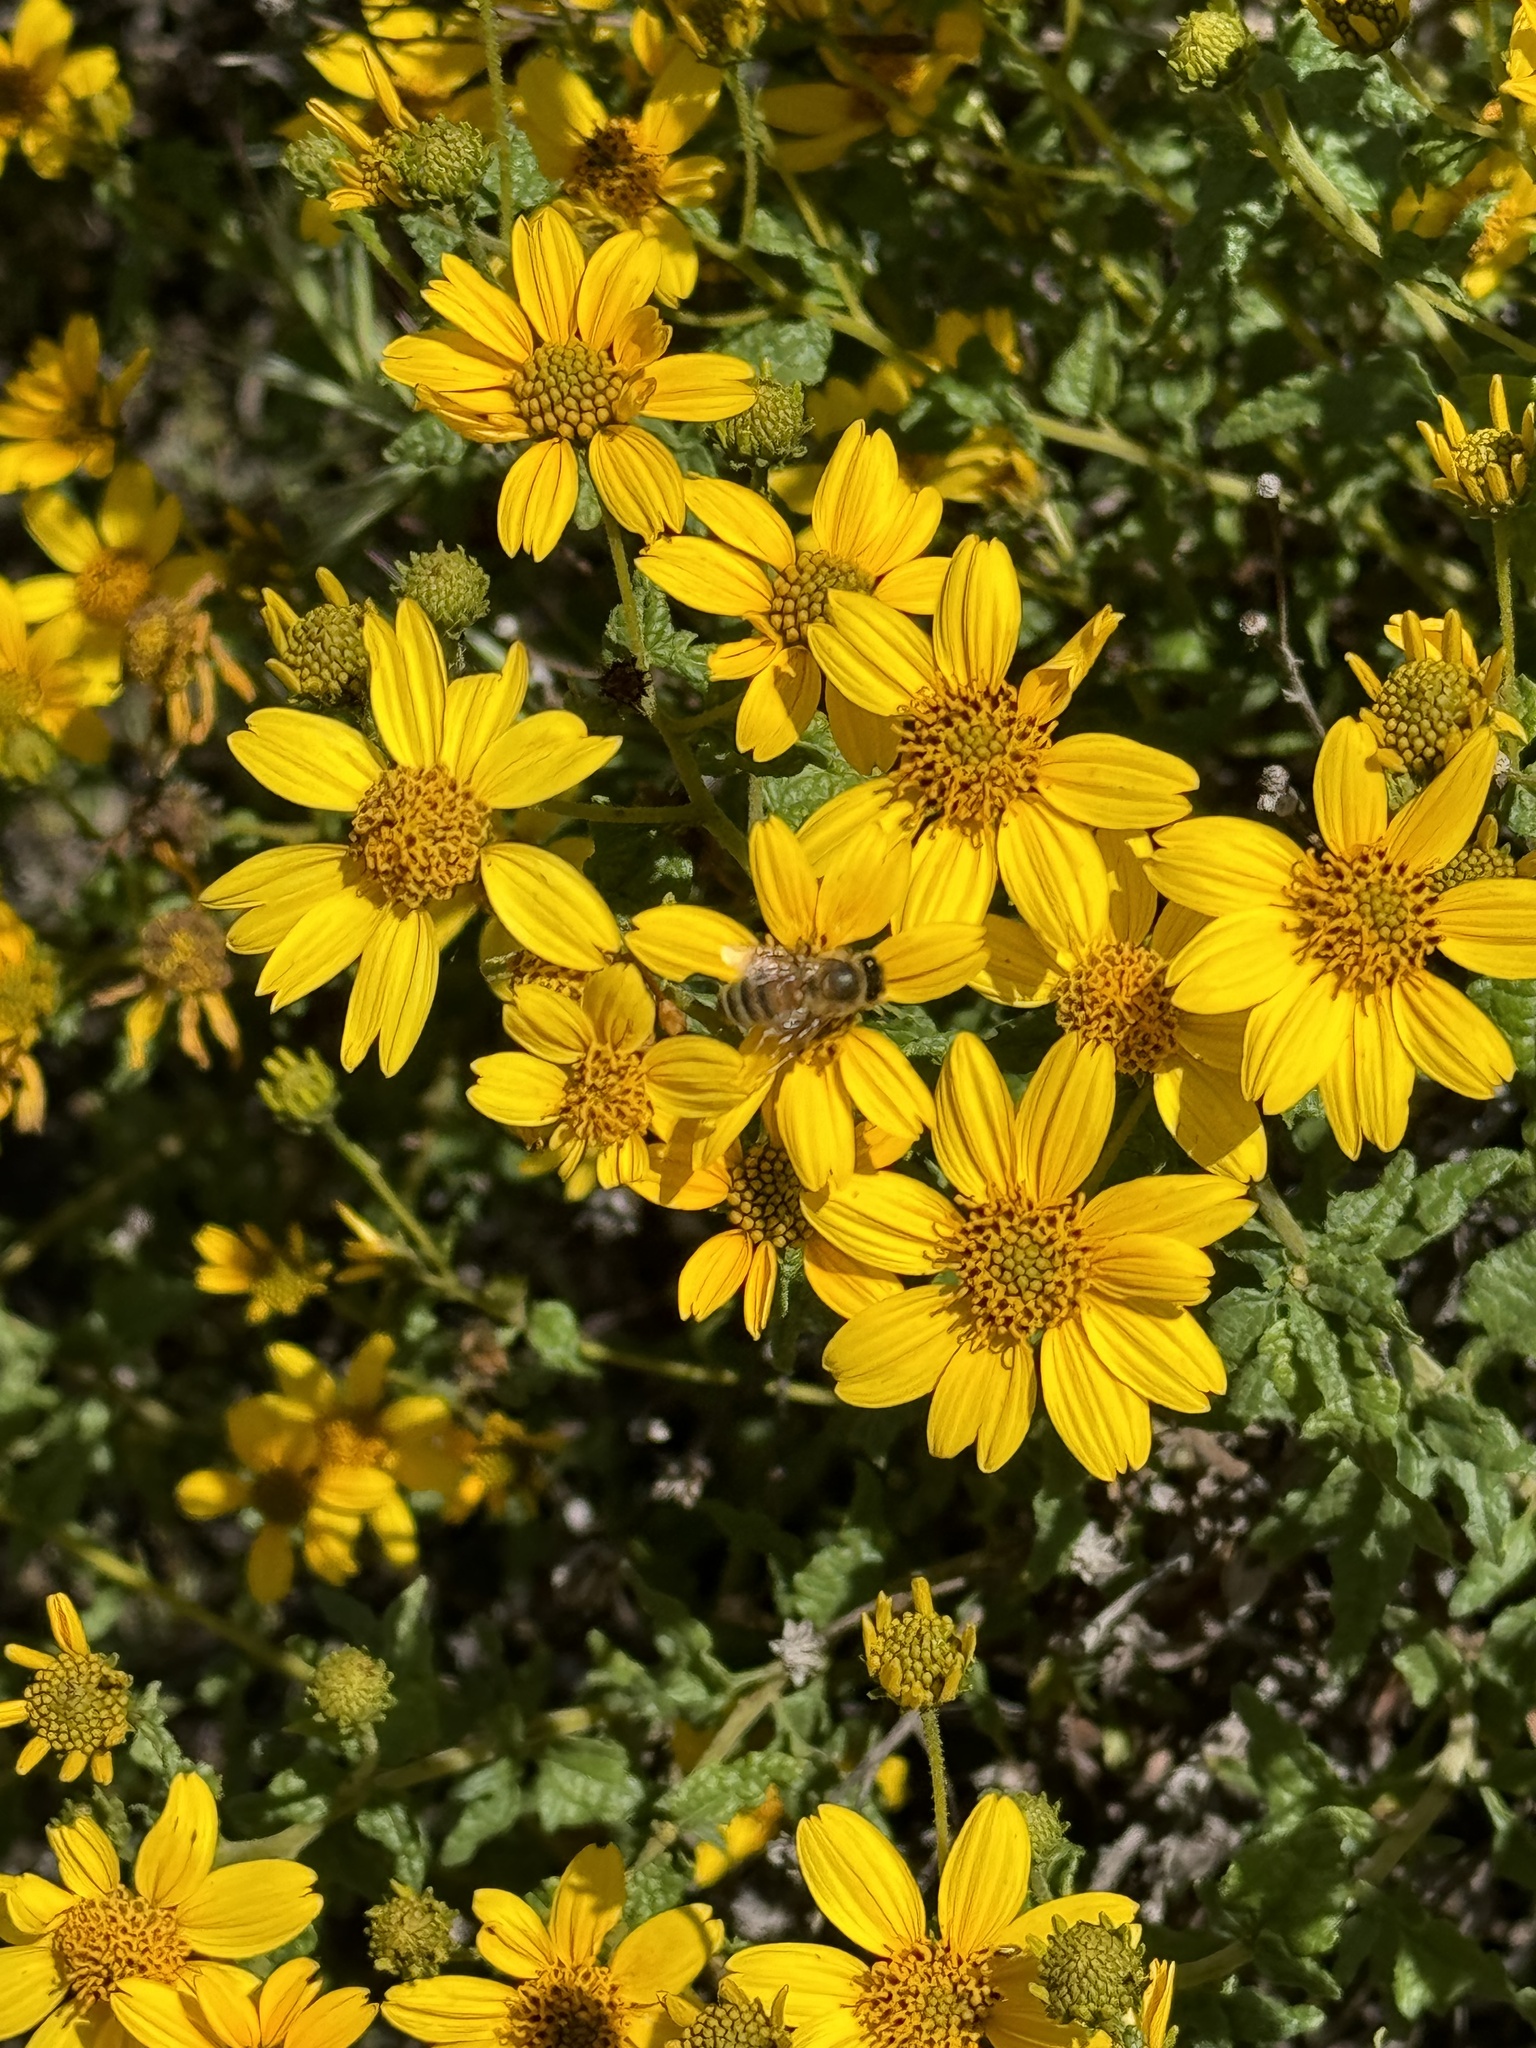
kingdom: Animalia
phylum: Arthropoda
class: Insecta
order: Hymenoptera
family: Apidae
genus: Apis
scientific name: Apis mellifera
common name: Honey bee
